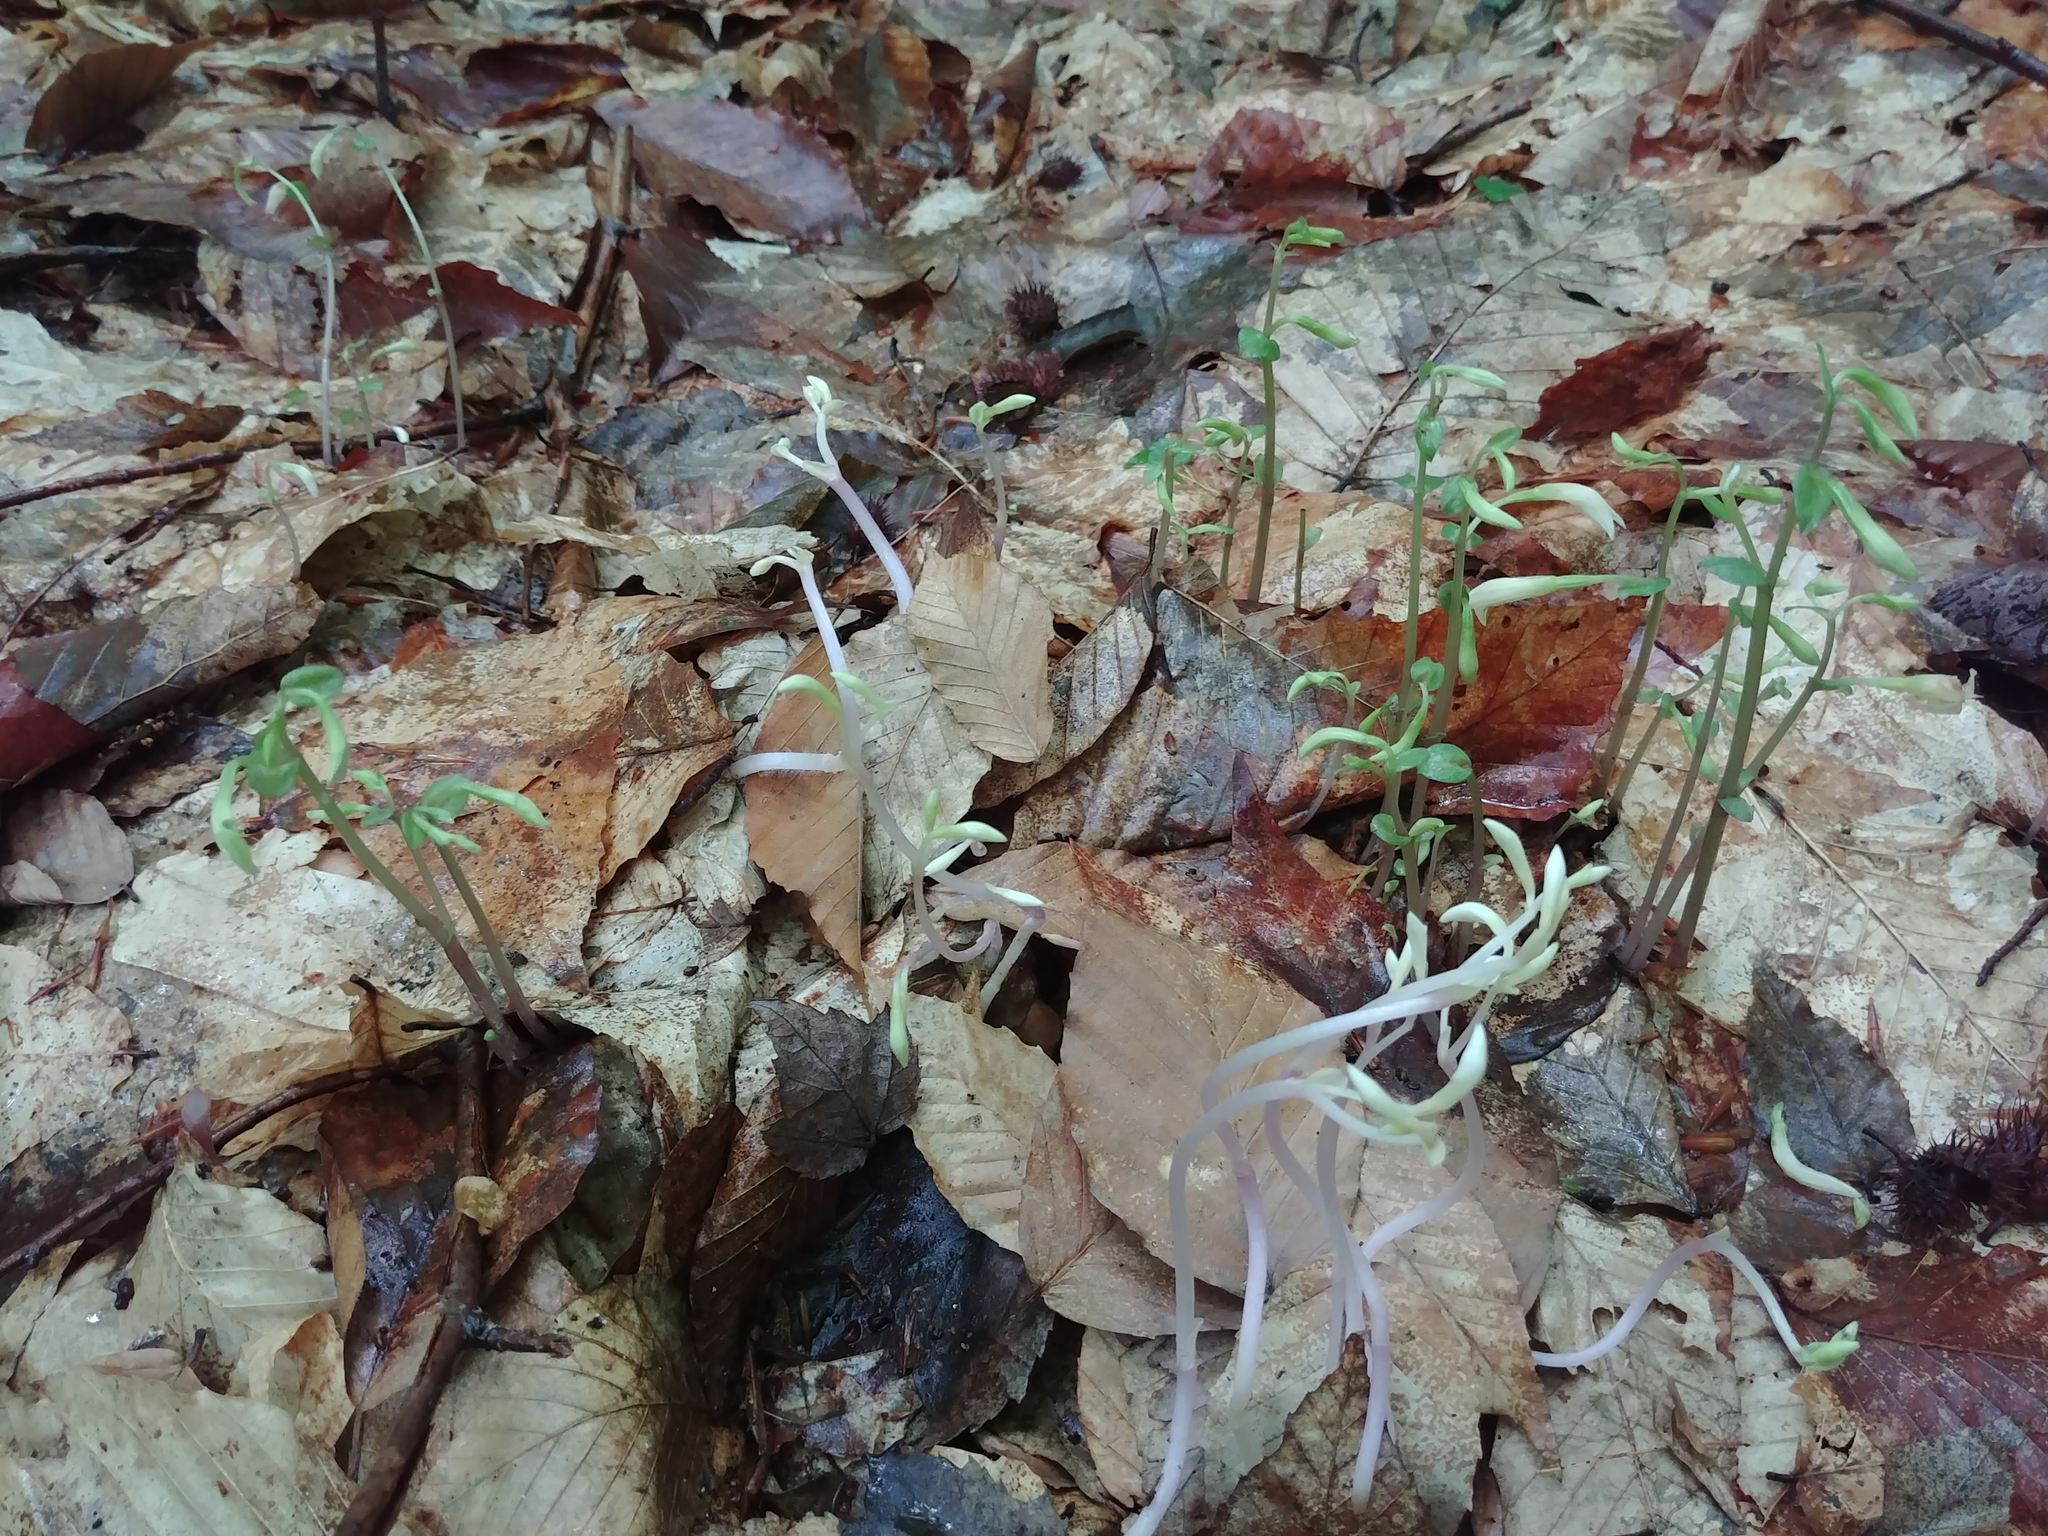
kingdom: Plantae
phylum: Tracheophyta
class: Liliopsida
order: Asparagales
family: Orchidaceae
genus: Triphora
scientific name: Triphora trianthophoros
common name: Three birds orchid
